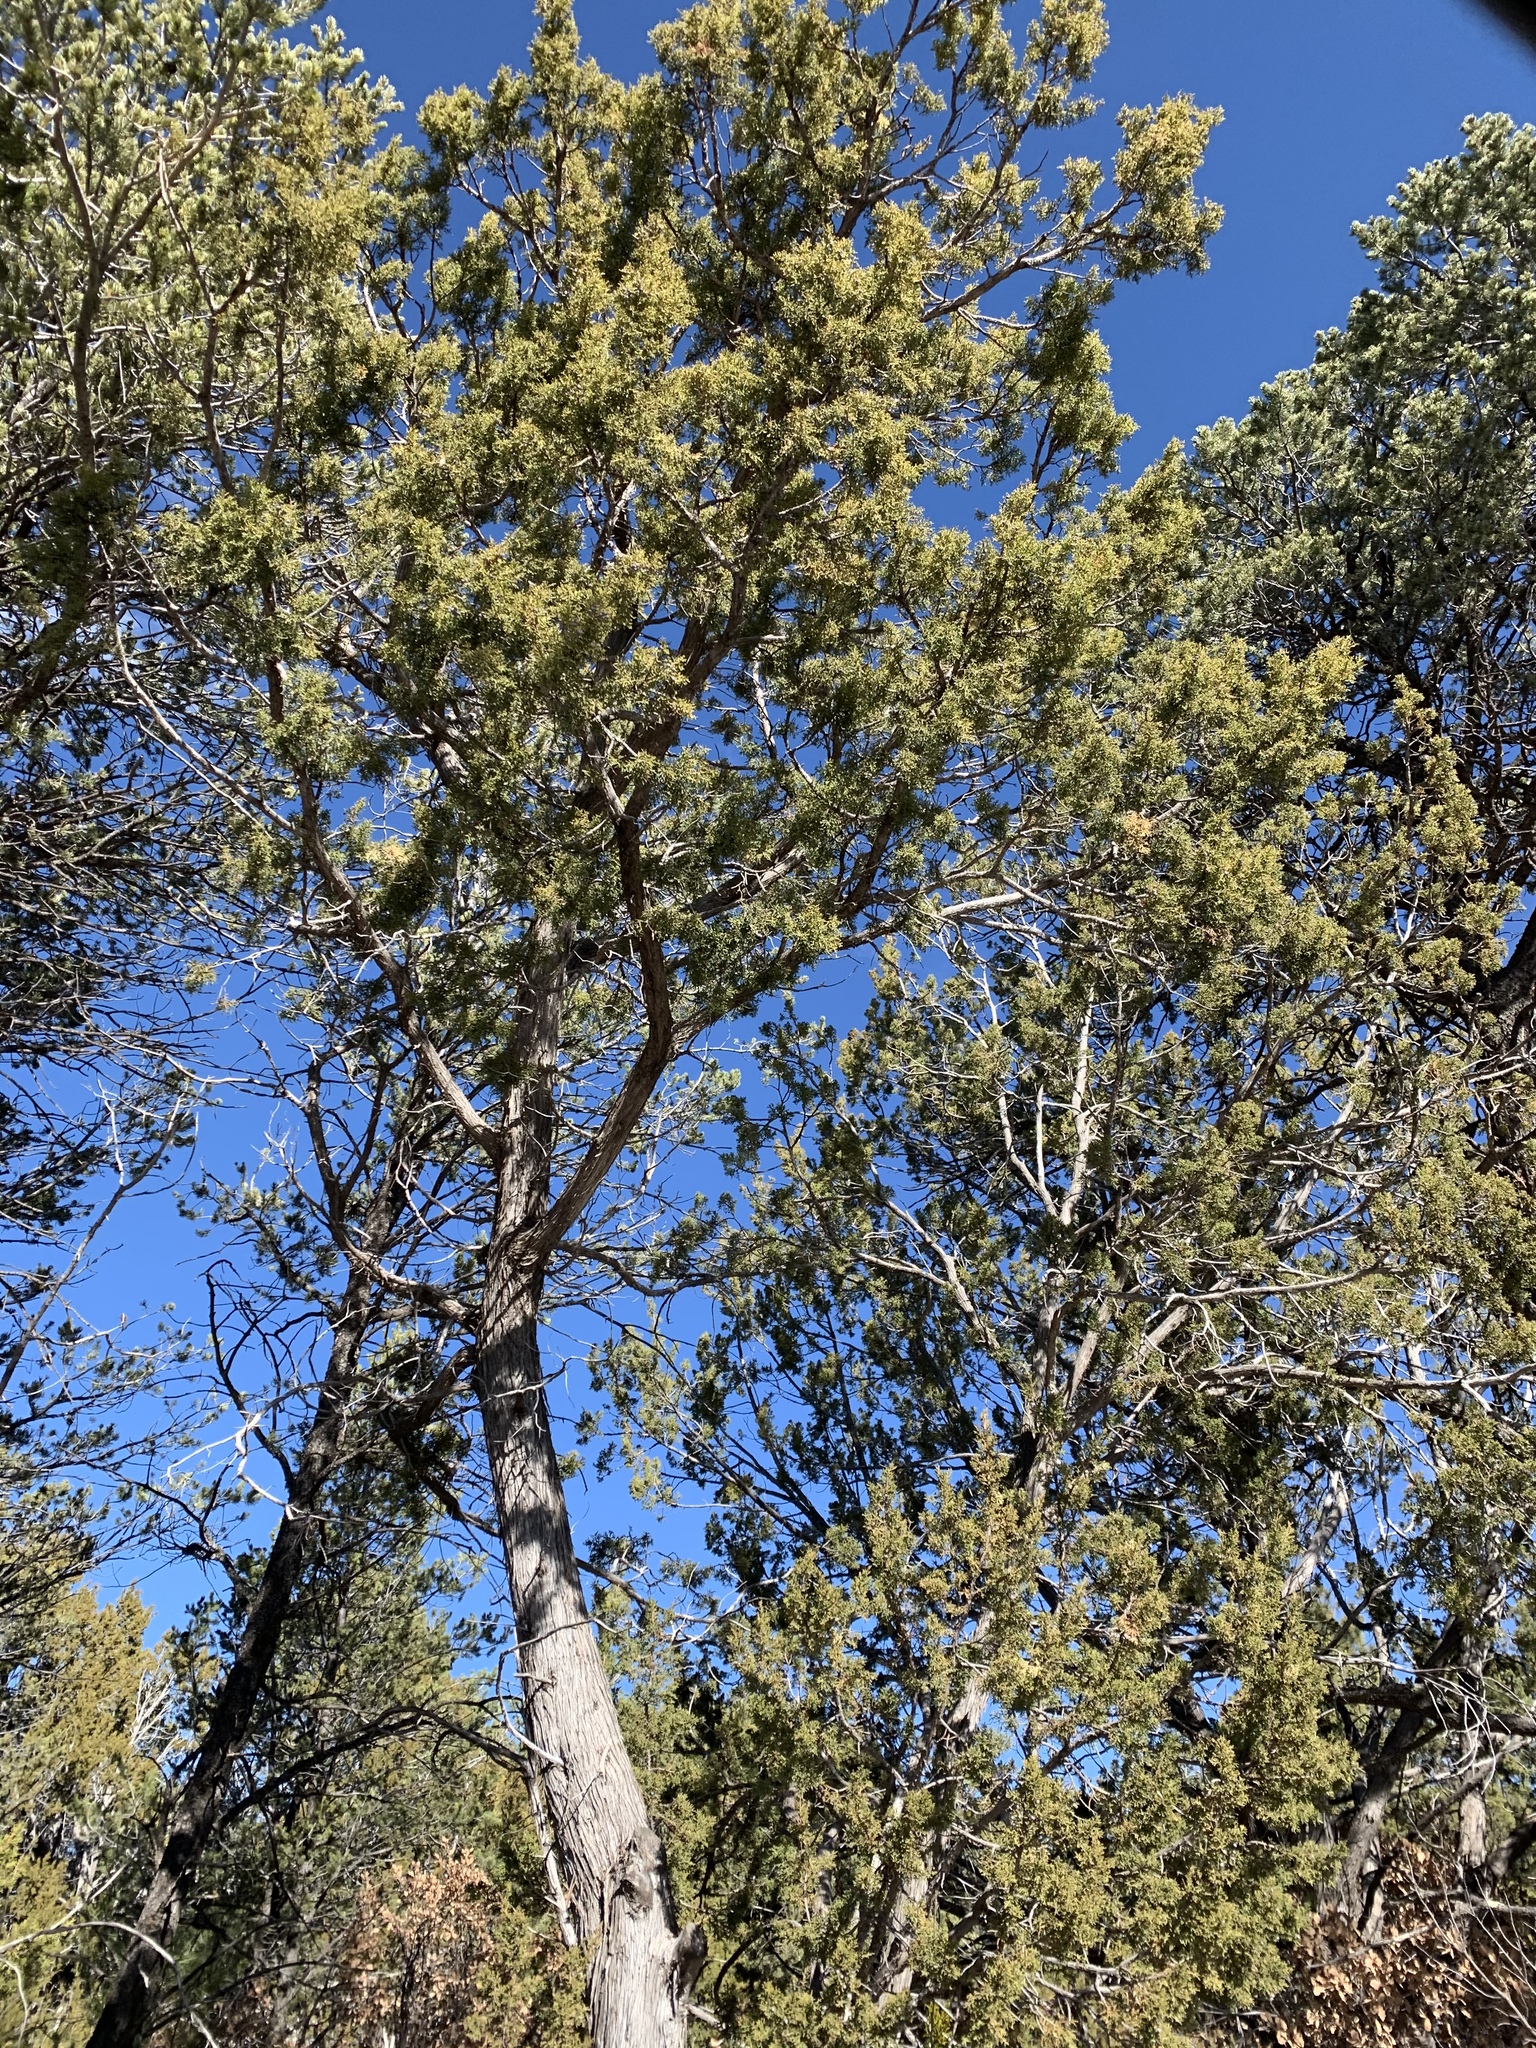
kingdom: Plantae
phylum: Tracheophyta
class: Pinopsida
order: Pinales
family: Cupressaceae
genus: Juniperus
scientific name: Juniperus monosperma
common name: One-seed juniper
